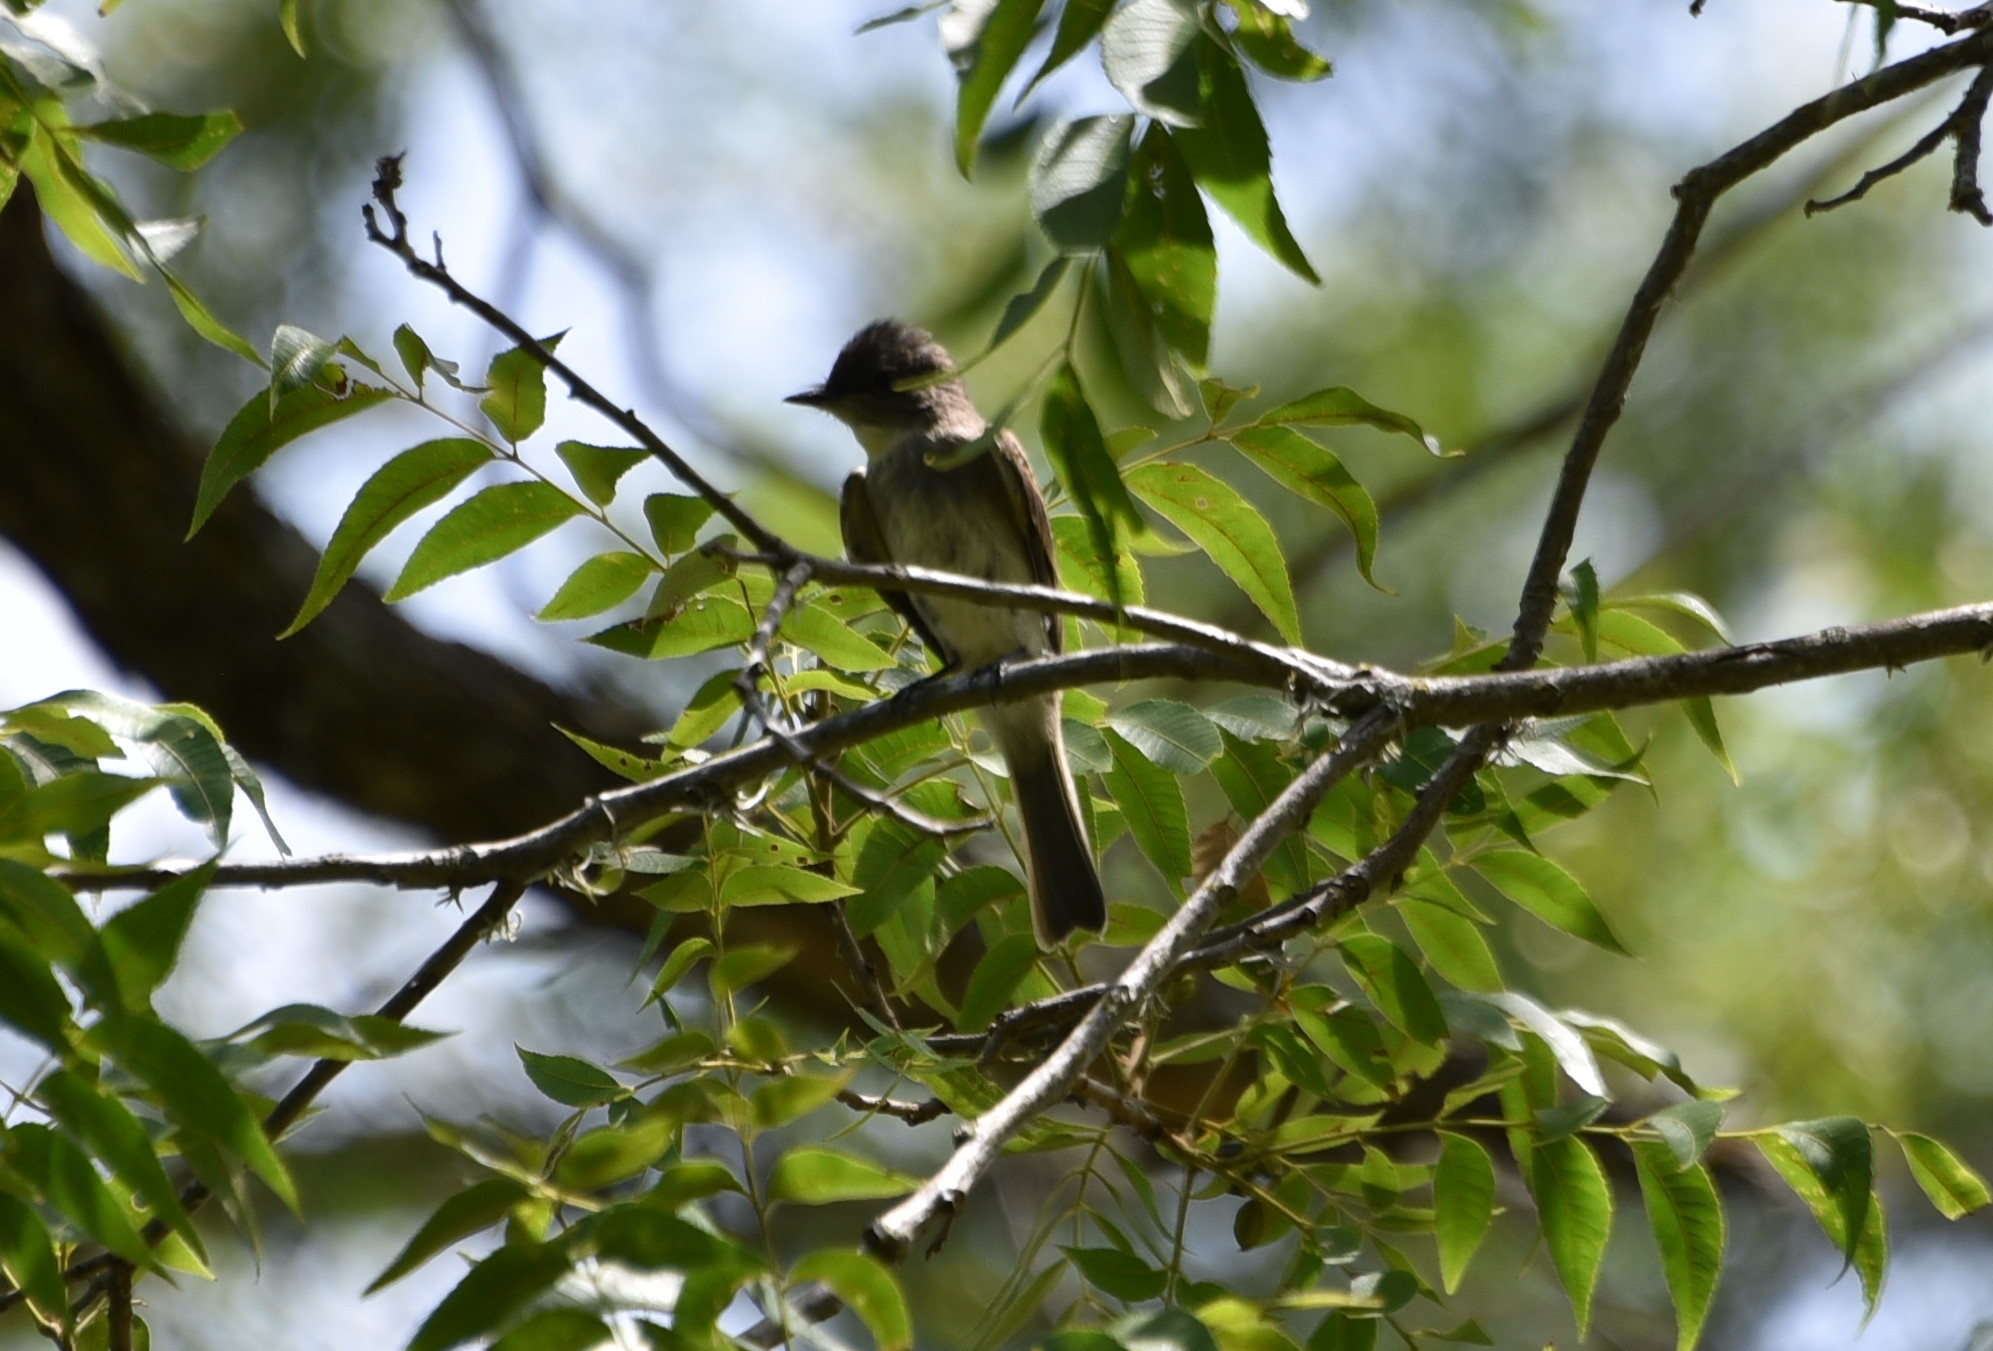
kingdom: Animalia
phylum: Chordata
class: Aves
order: Passeriformes
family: Tyrannidae
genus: Sayornis
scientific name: Sayornis phoebe
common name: Eastern phoebe
